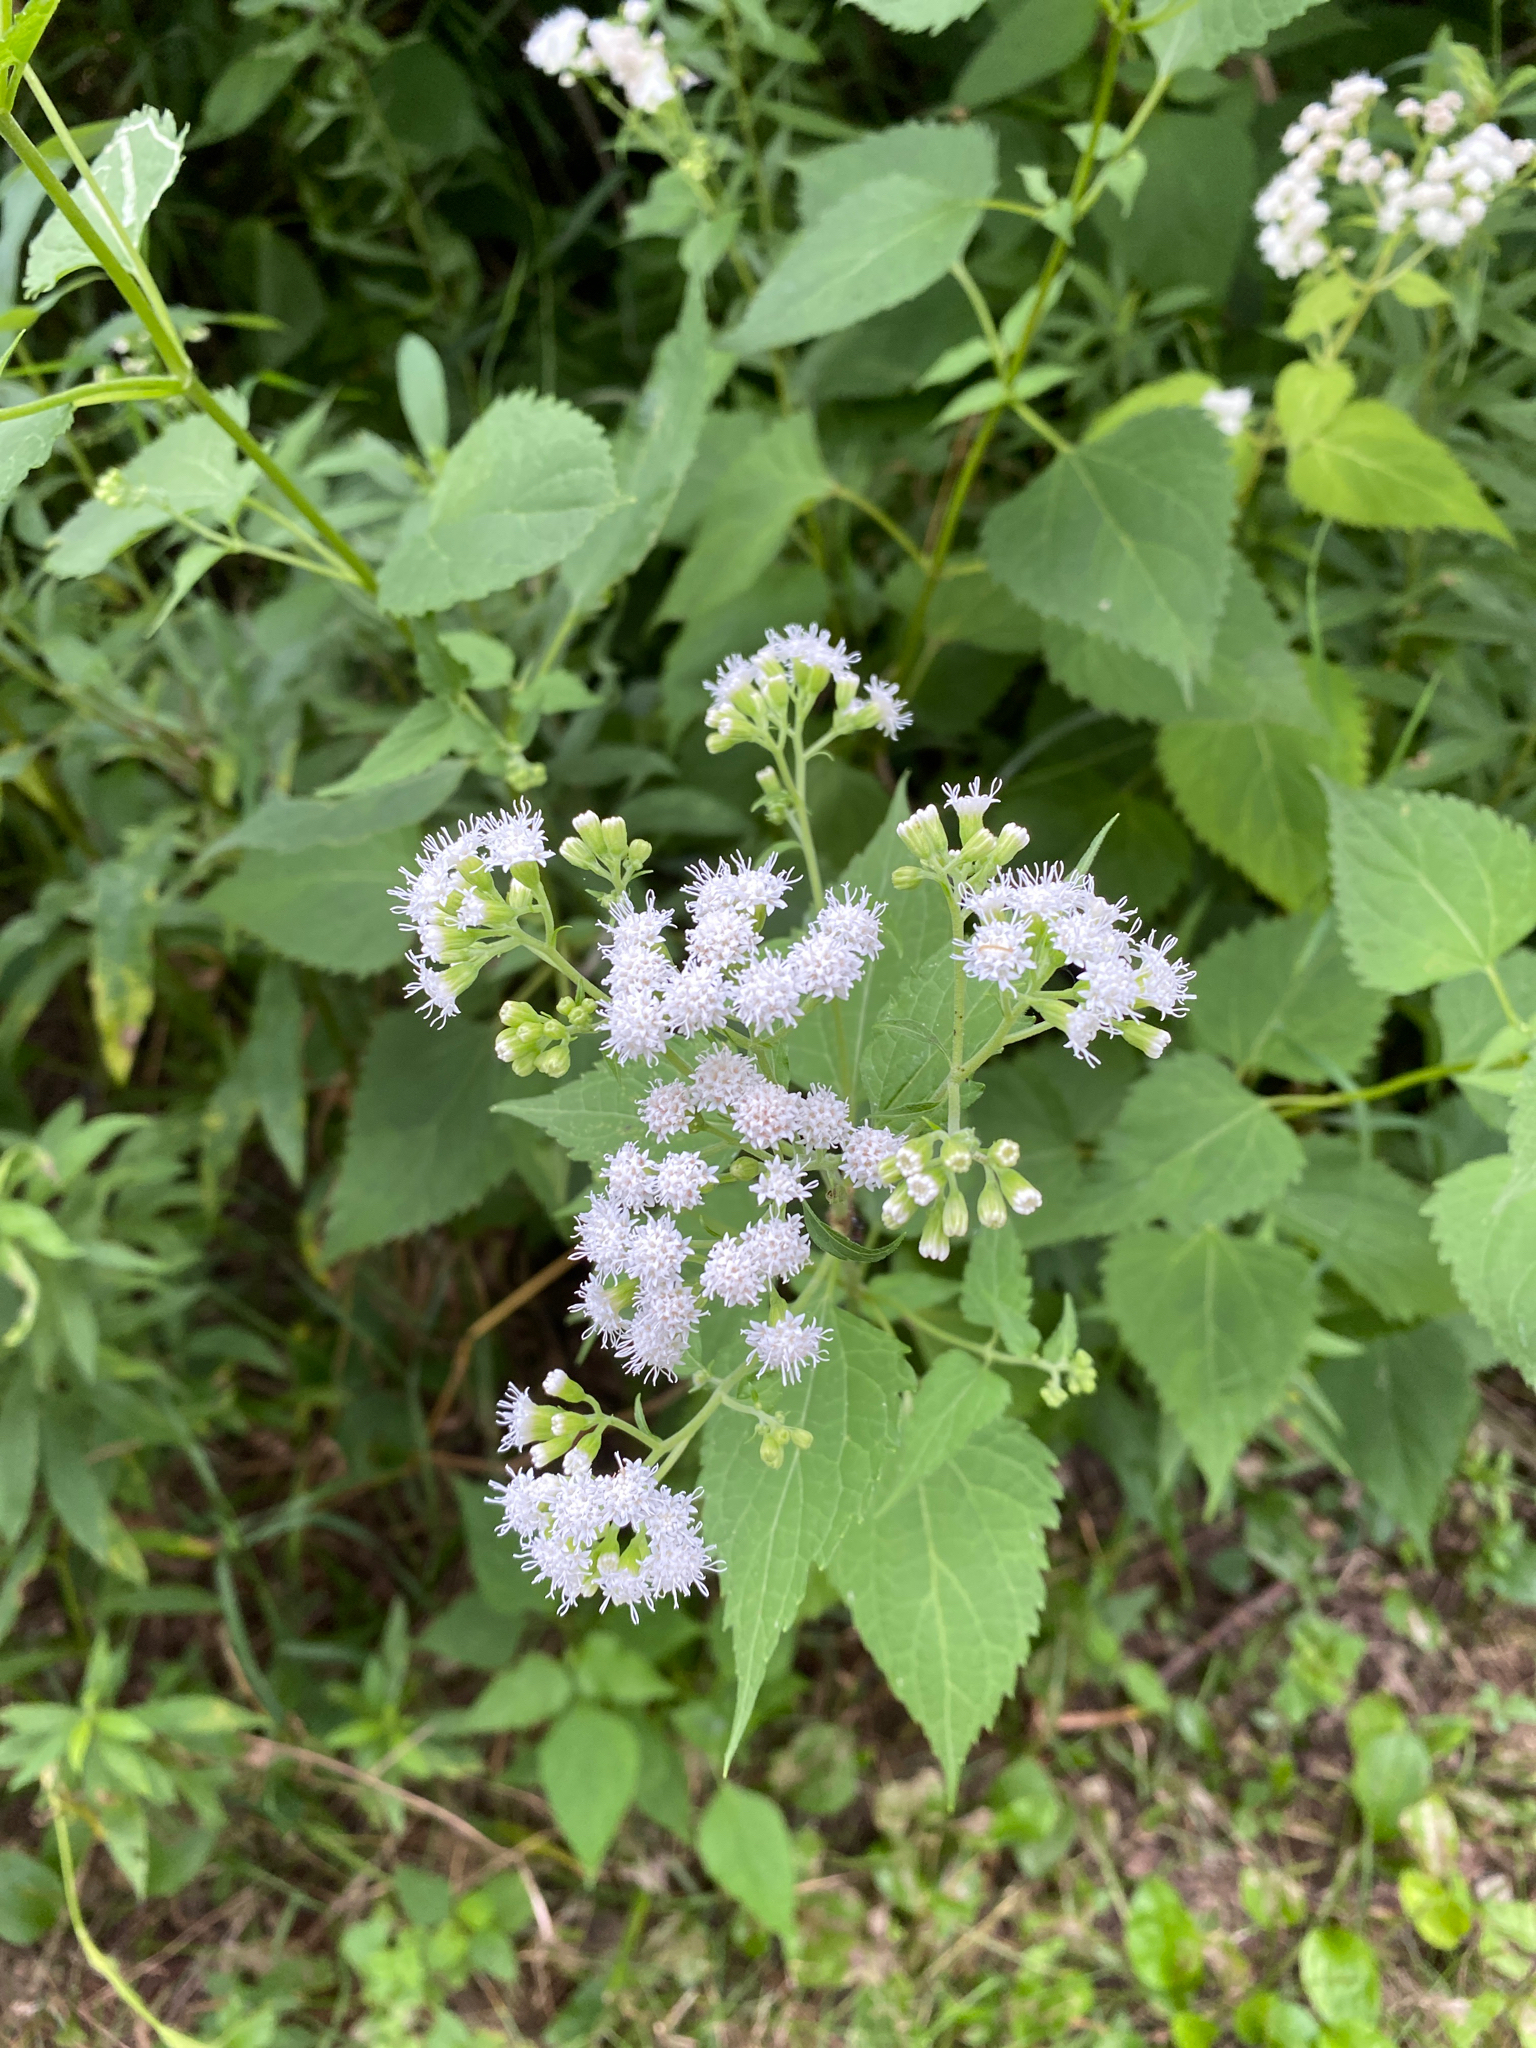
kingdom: Plantae
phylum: Tracheophyta
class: Magnoliopsida
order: Asterales
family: Asteraceae
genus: Ageratina
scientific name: Ageratina altissima
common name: White snakeroot
